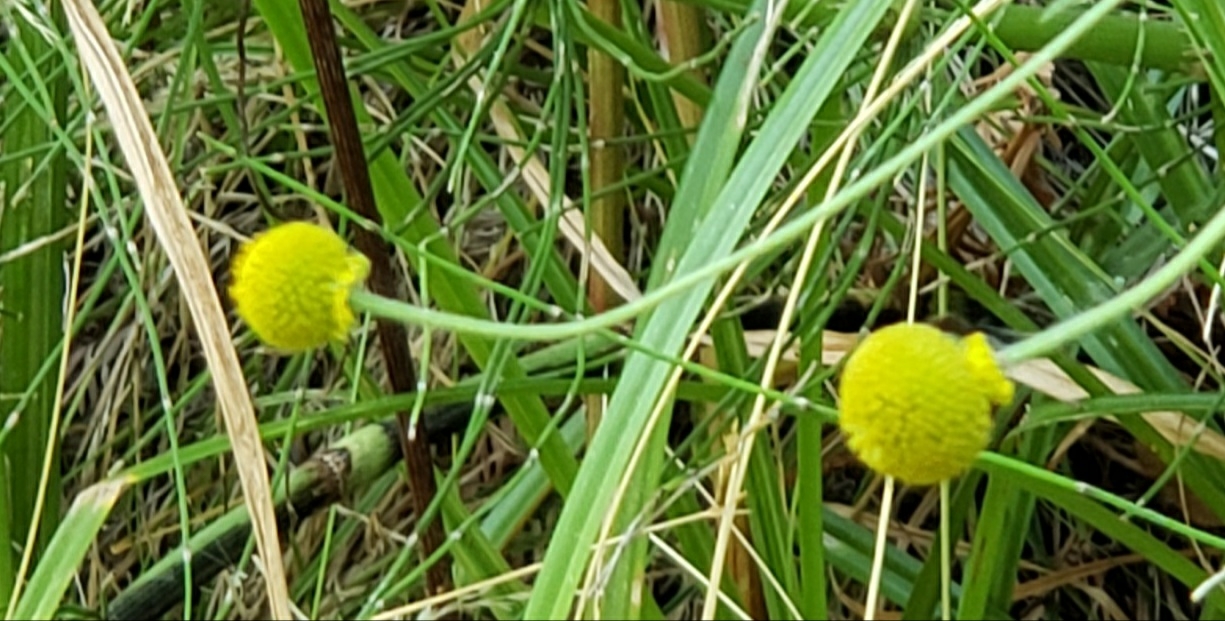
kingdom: Plantae
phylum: Tracheophyta
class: Magnoliopsida
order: Asterales
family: Asteraceae
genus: Helenium
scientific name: Helenium puberulum
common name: Sneezewort
